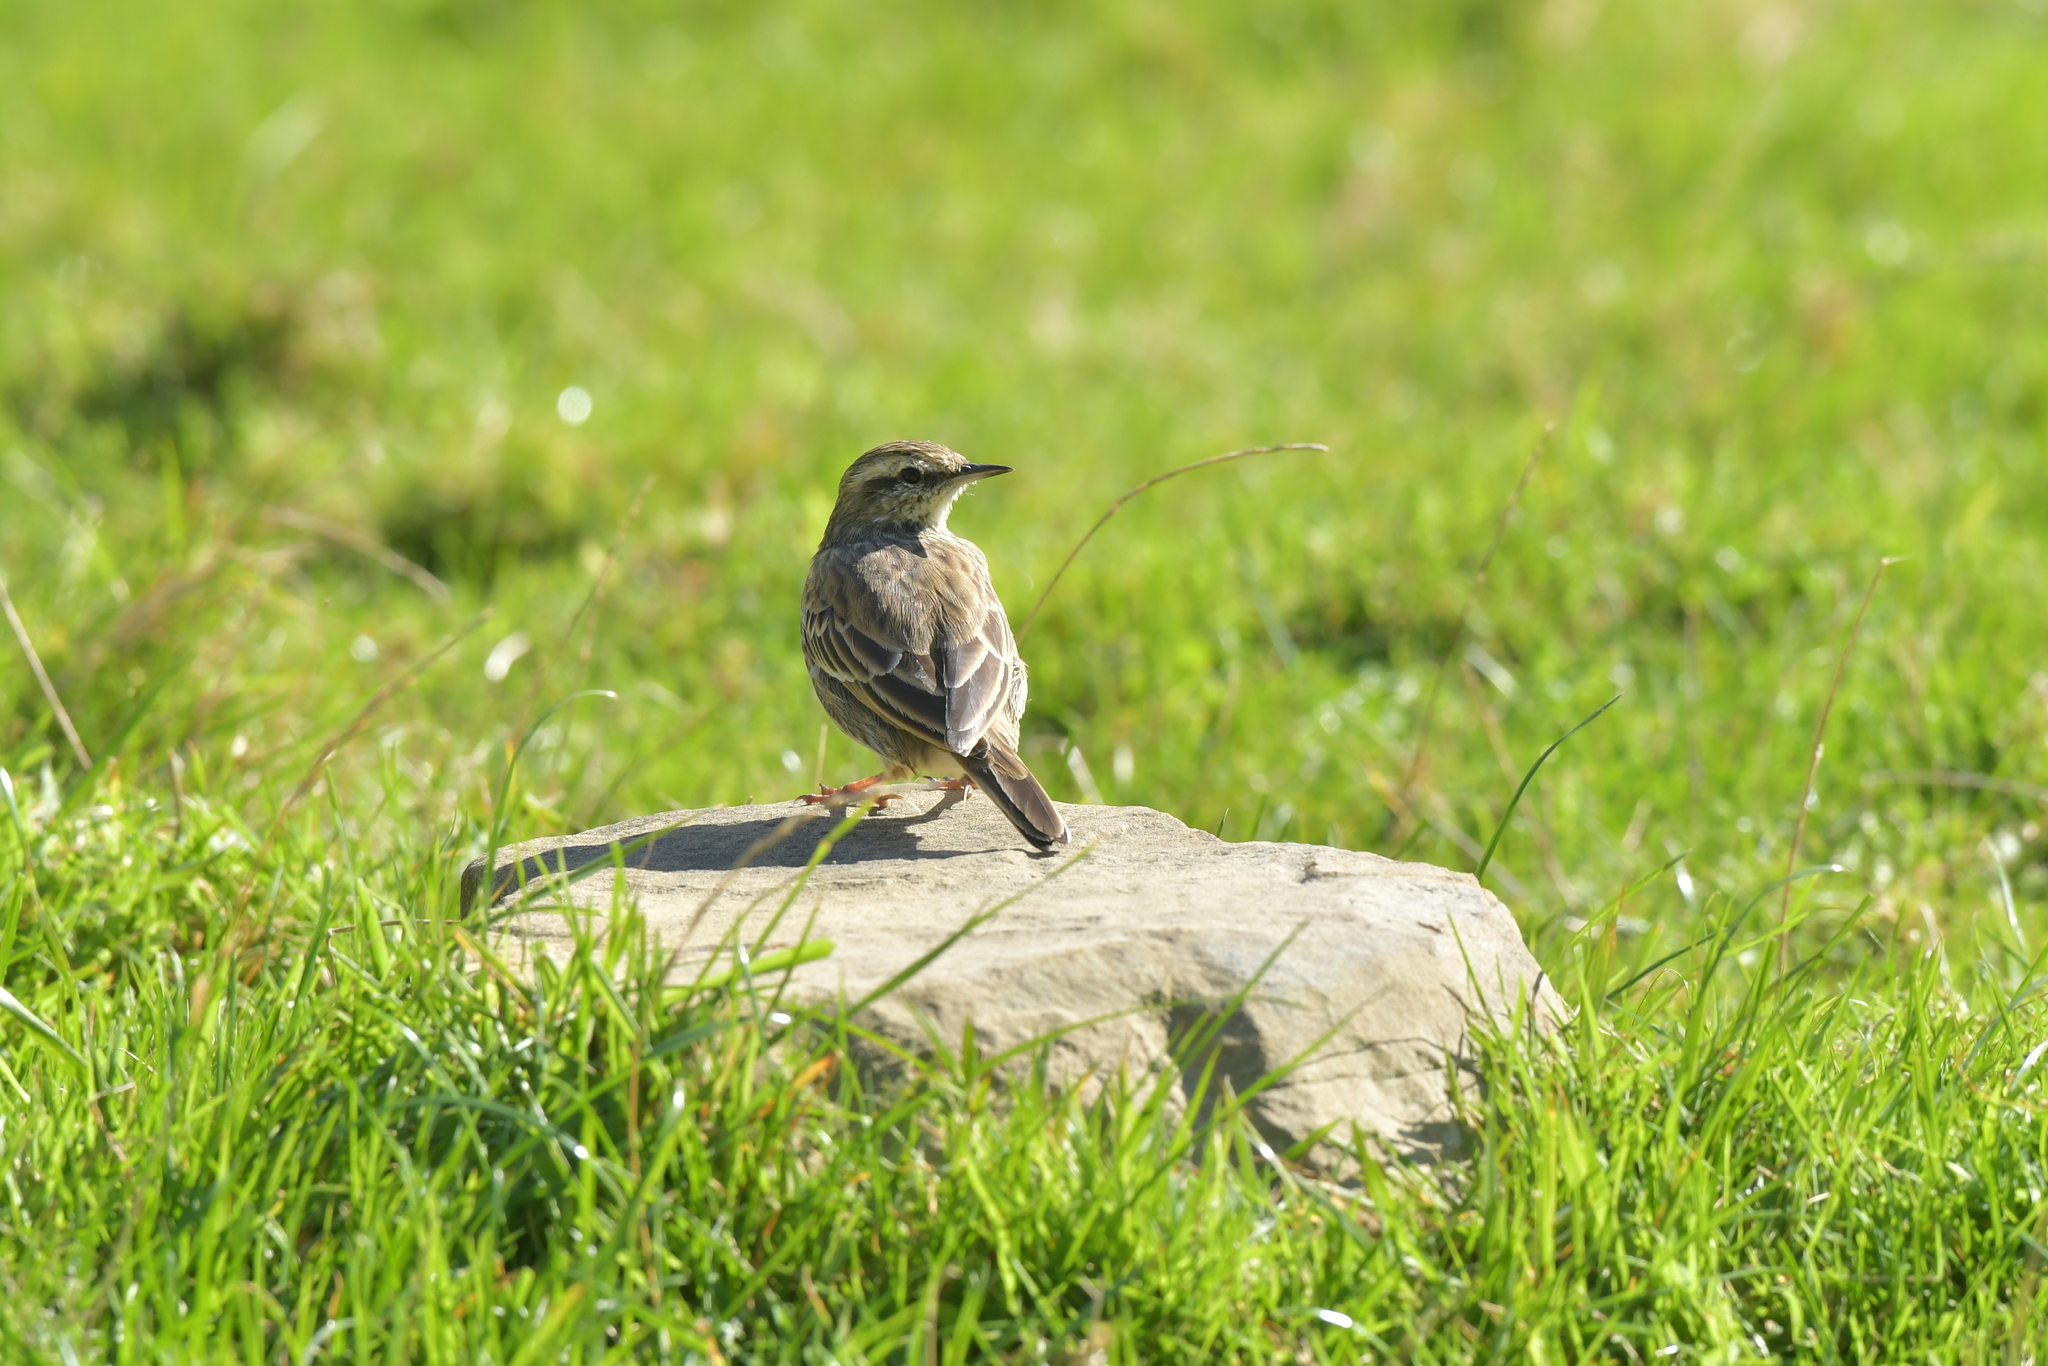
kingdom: Animalia
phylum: Chordata
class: Aves
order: Passeriformes
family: Motacillidae
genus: Anthus
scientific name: Anthus novaeseelandiae
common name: New zealand pipit
